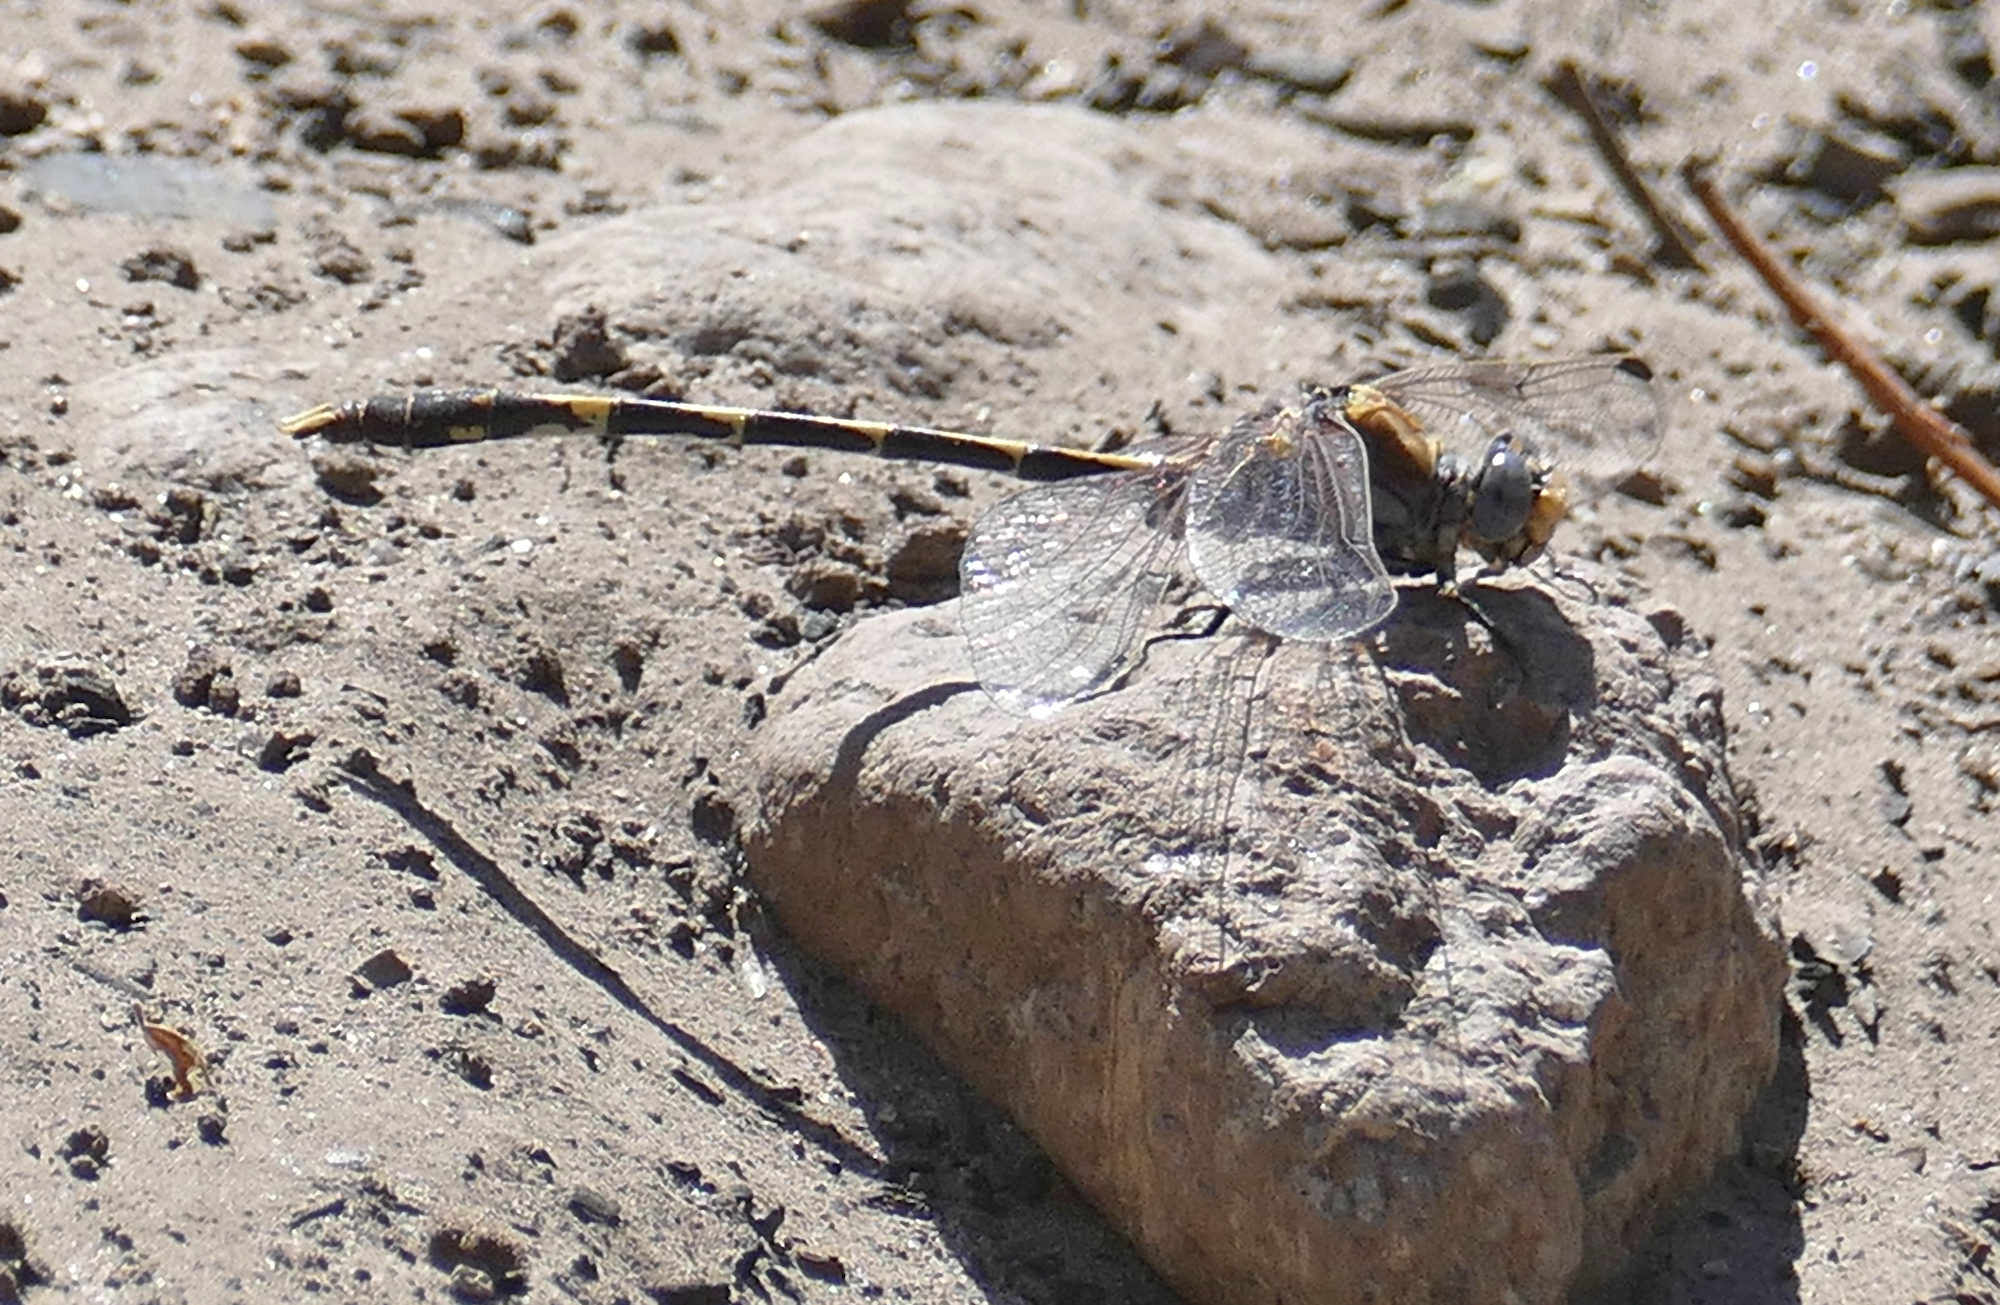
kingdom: Animalia
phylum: Arthropoda
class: Insecta
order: Odonata
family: Gomphidae
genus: Progomphus
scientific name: Progomphus borealis
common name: Gray sanddragon
